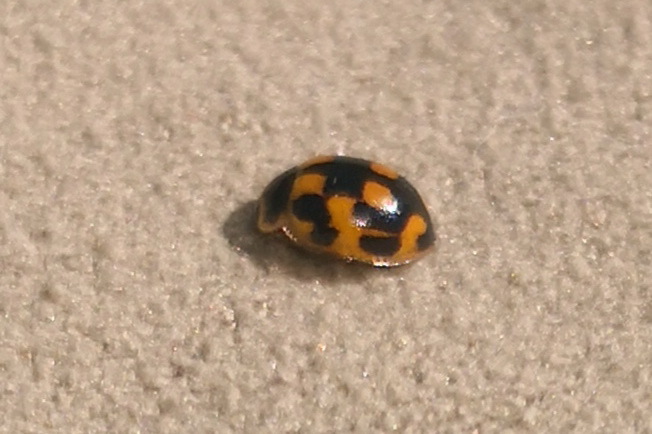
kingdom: Animalia
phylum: Arthropoda
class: Insecta
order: Coleoptera
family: Coccinellidae
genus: Propylaea
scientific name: Propylaea quatuordecimpunctata
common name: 14-spotted ladybird beetle
